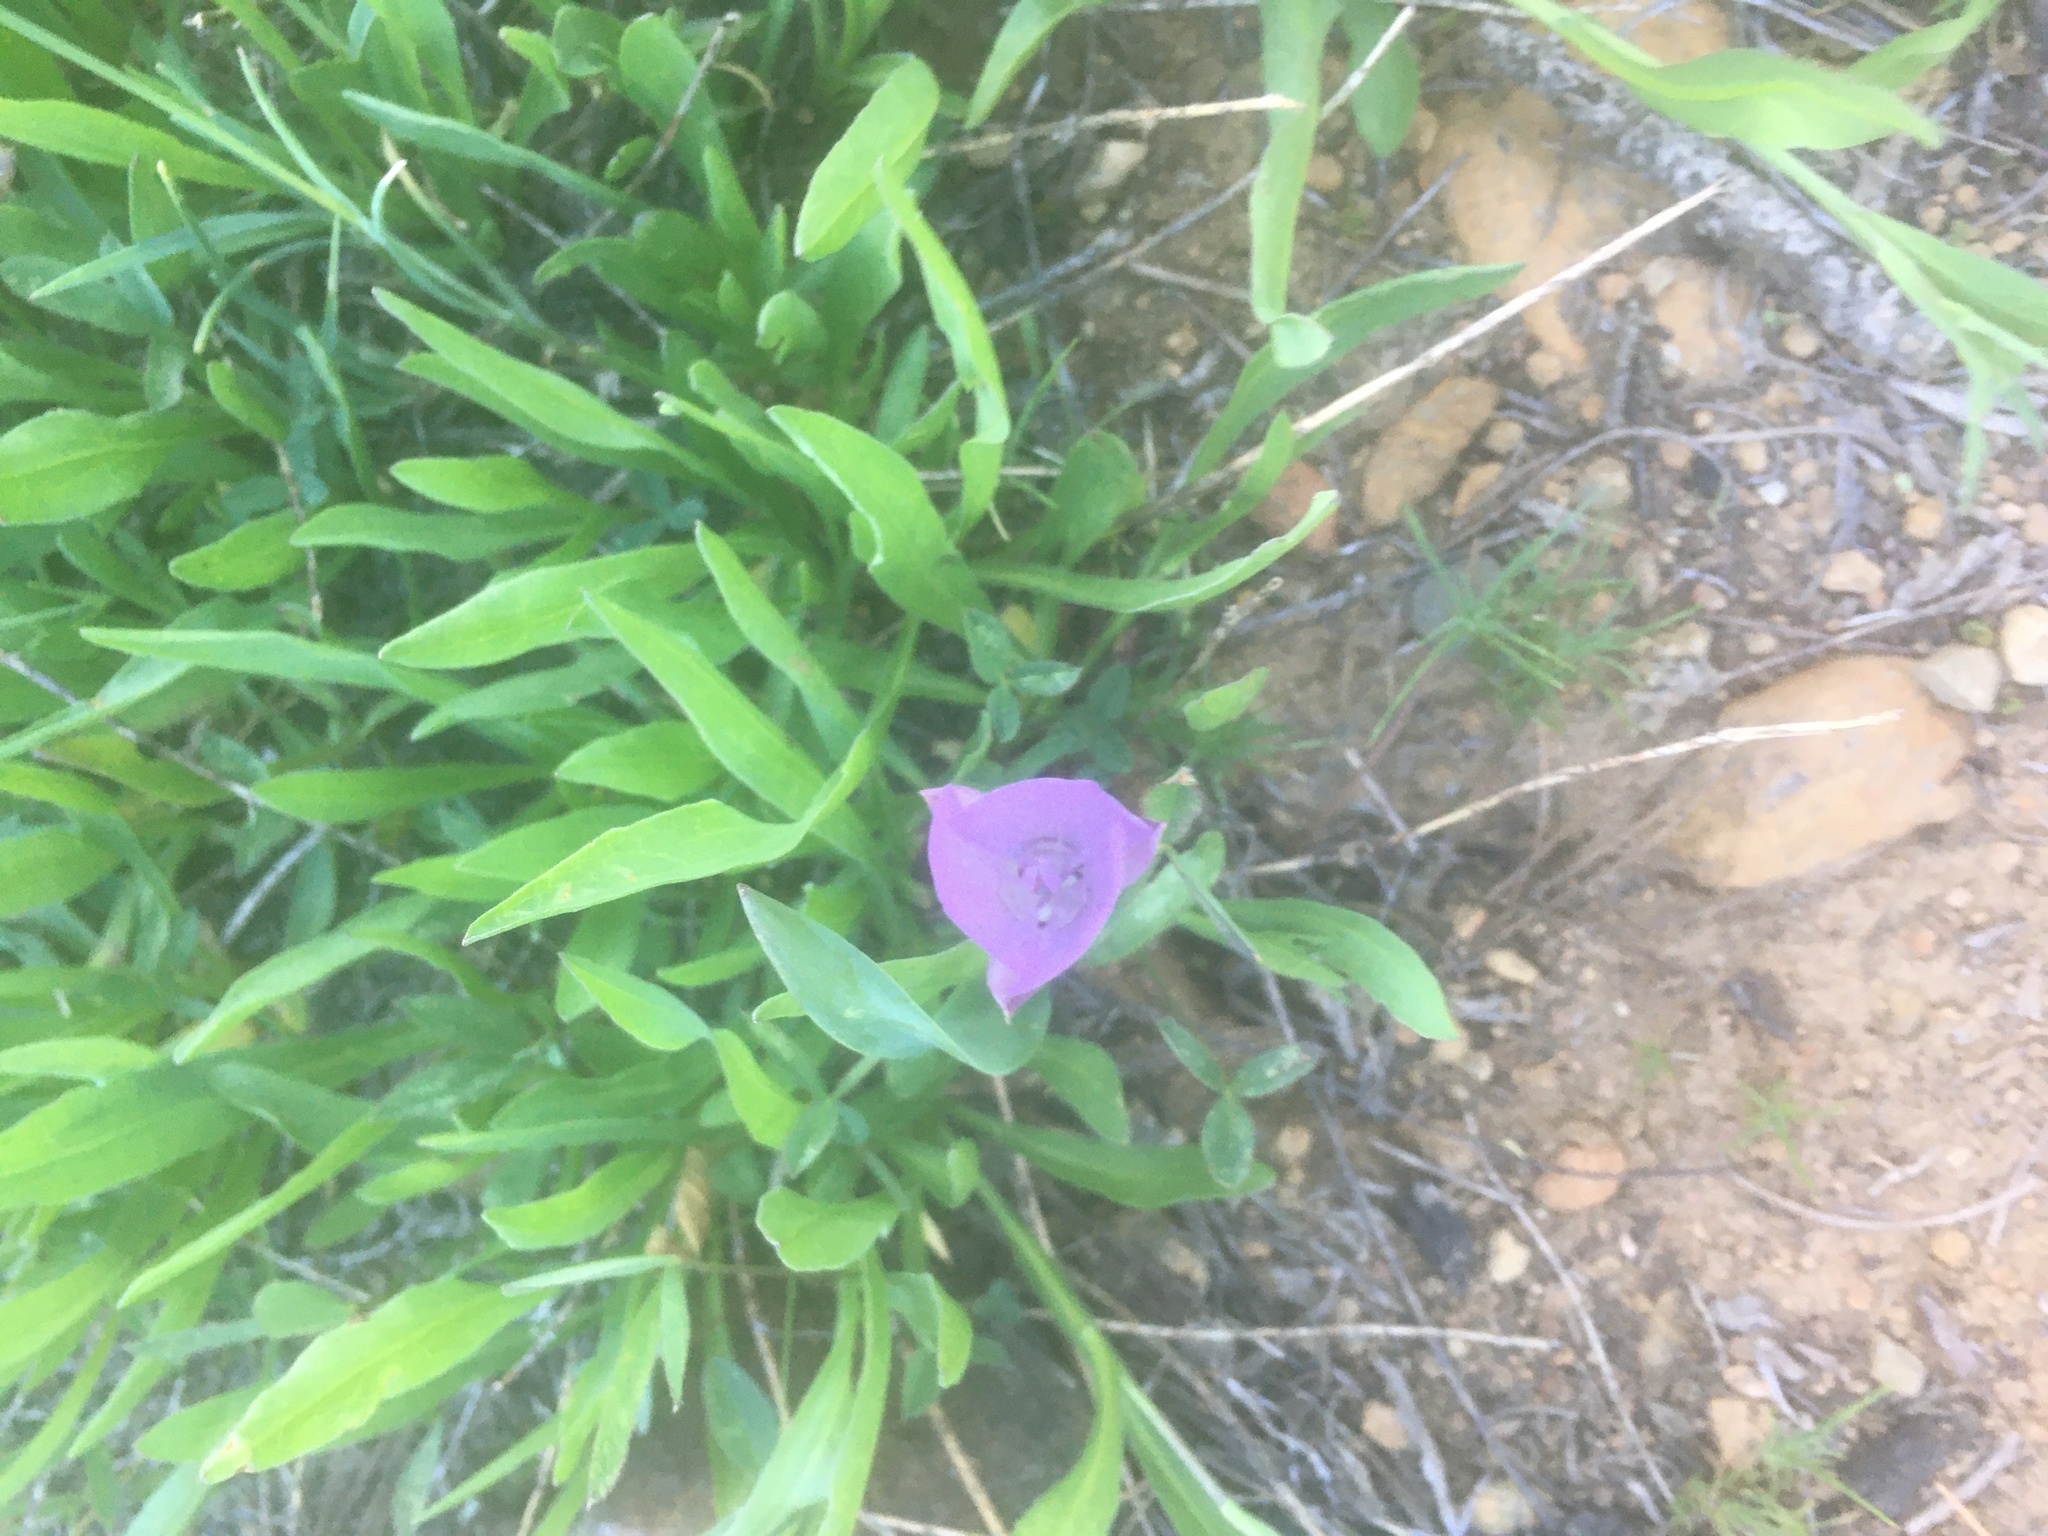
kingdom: Plantae
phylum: Tracheophyta
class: Liliopsida
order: Liliales
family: Liliaceae
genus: Calochortus
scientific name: Calochortus nudus
